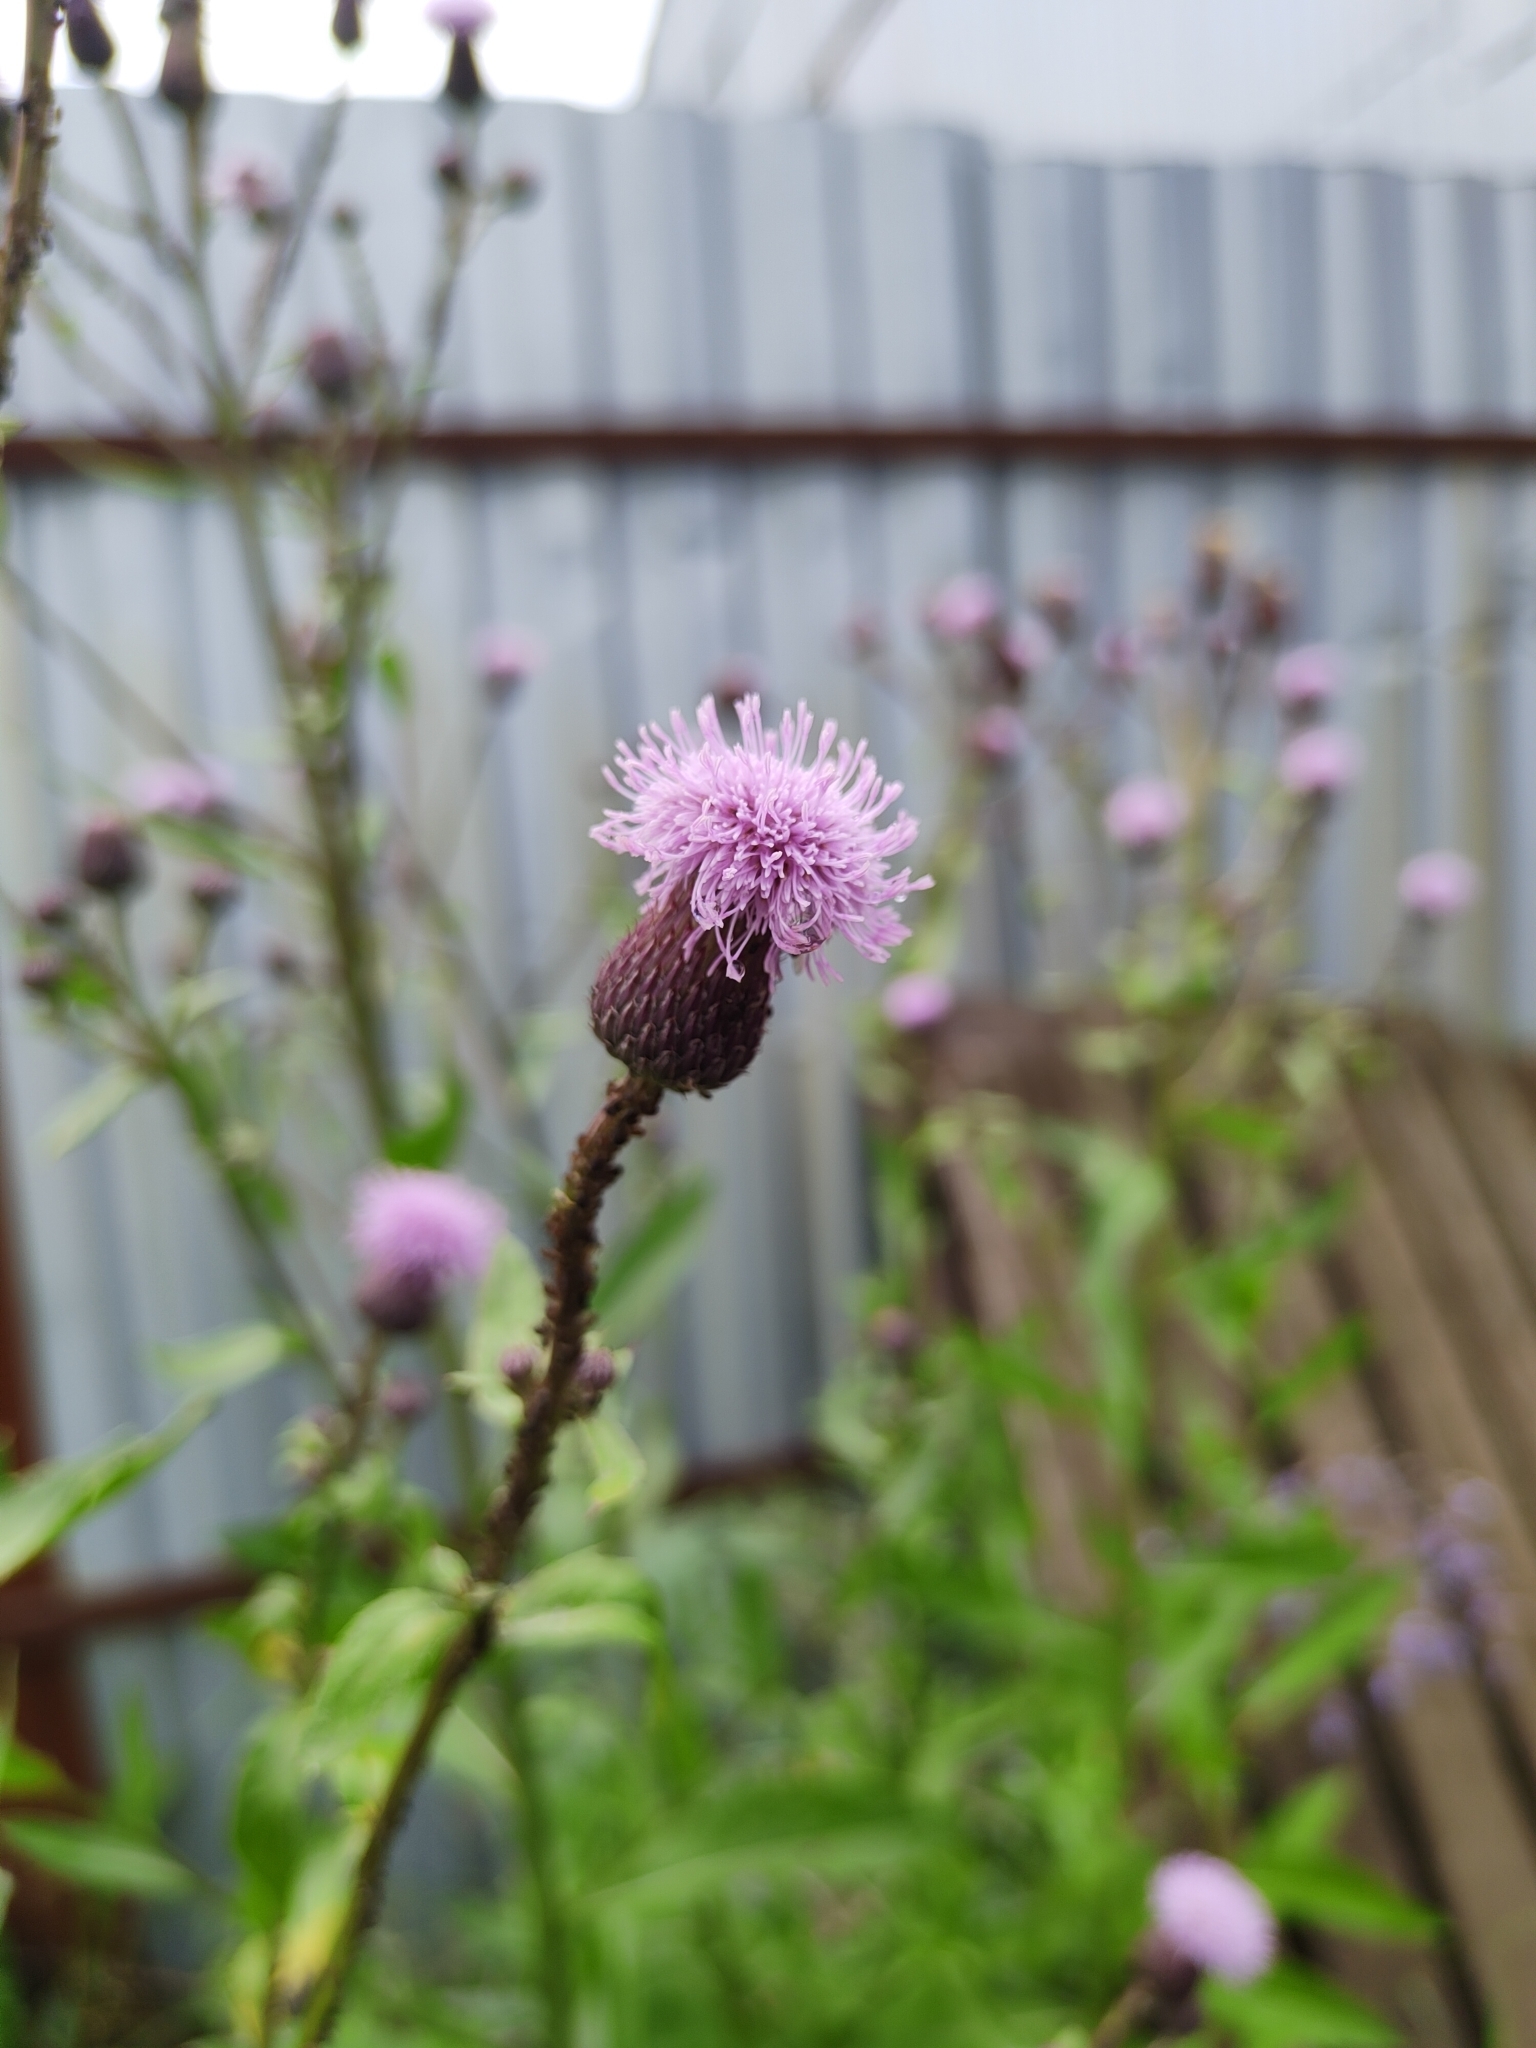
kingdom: Plantae
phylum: Tracheophyta
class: Magnoliopsida
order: Asterales
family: Asteraceae
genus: Cirsium
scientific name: Cirsium arvense
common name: Creeping thistle
